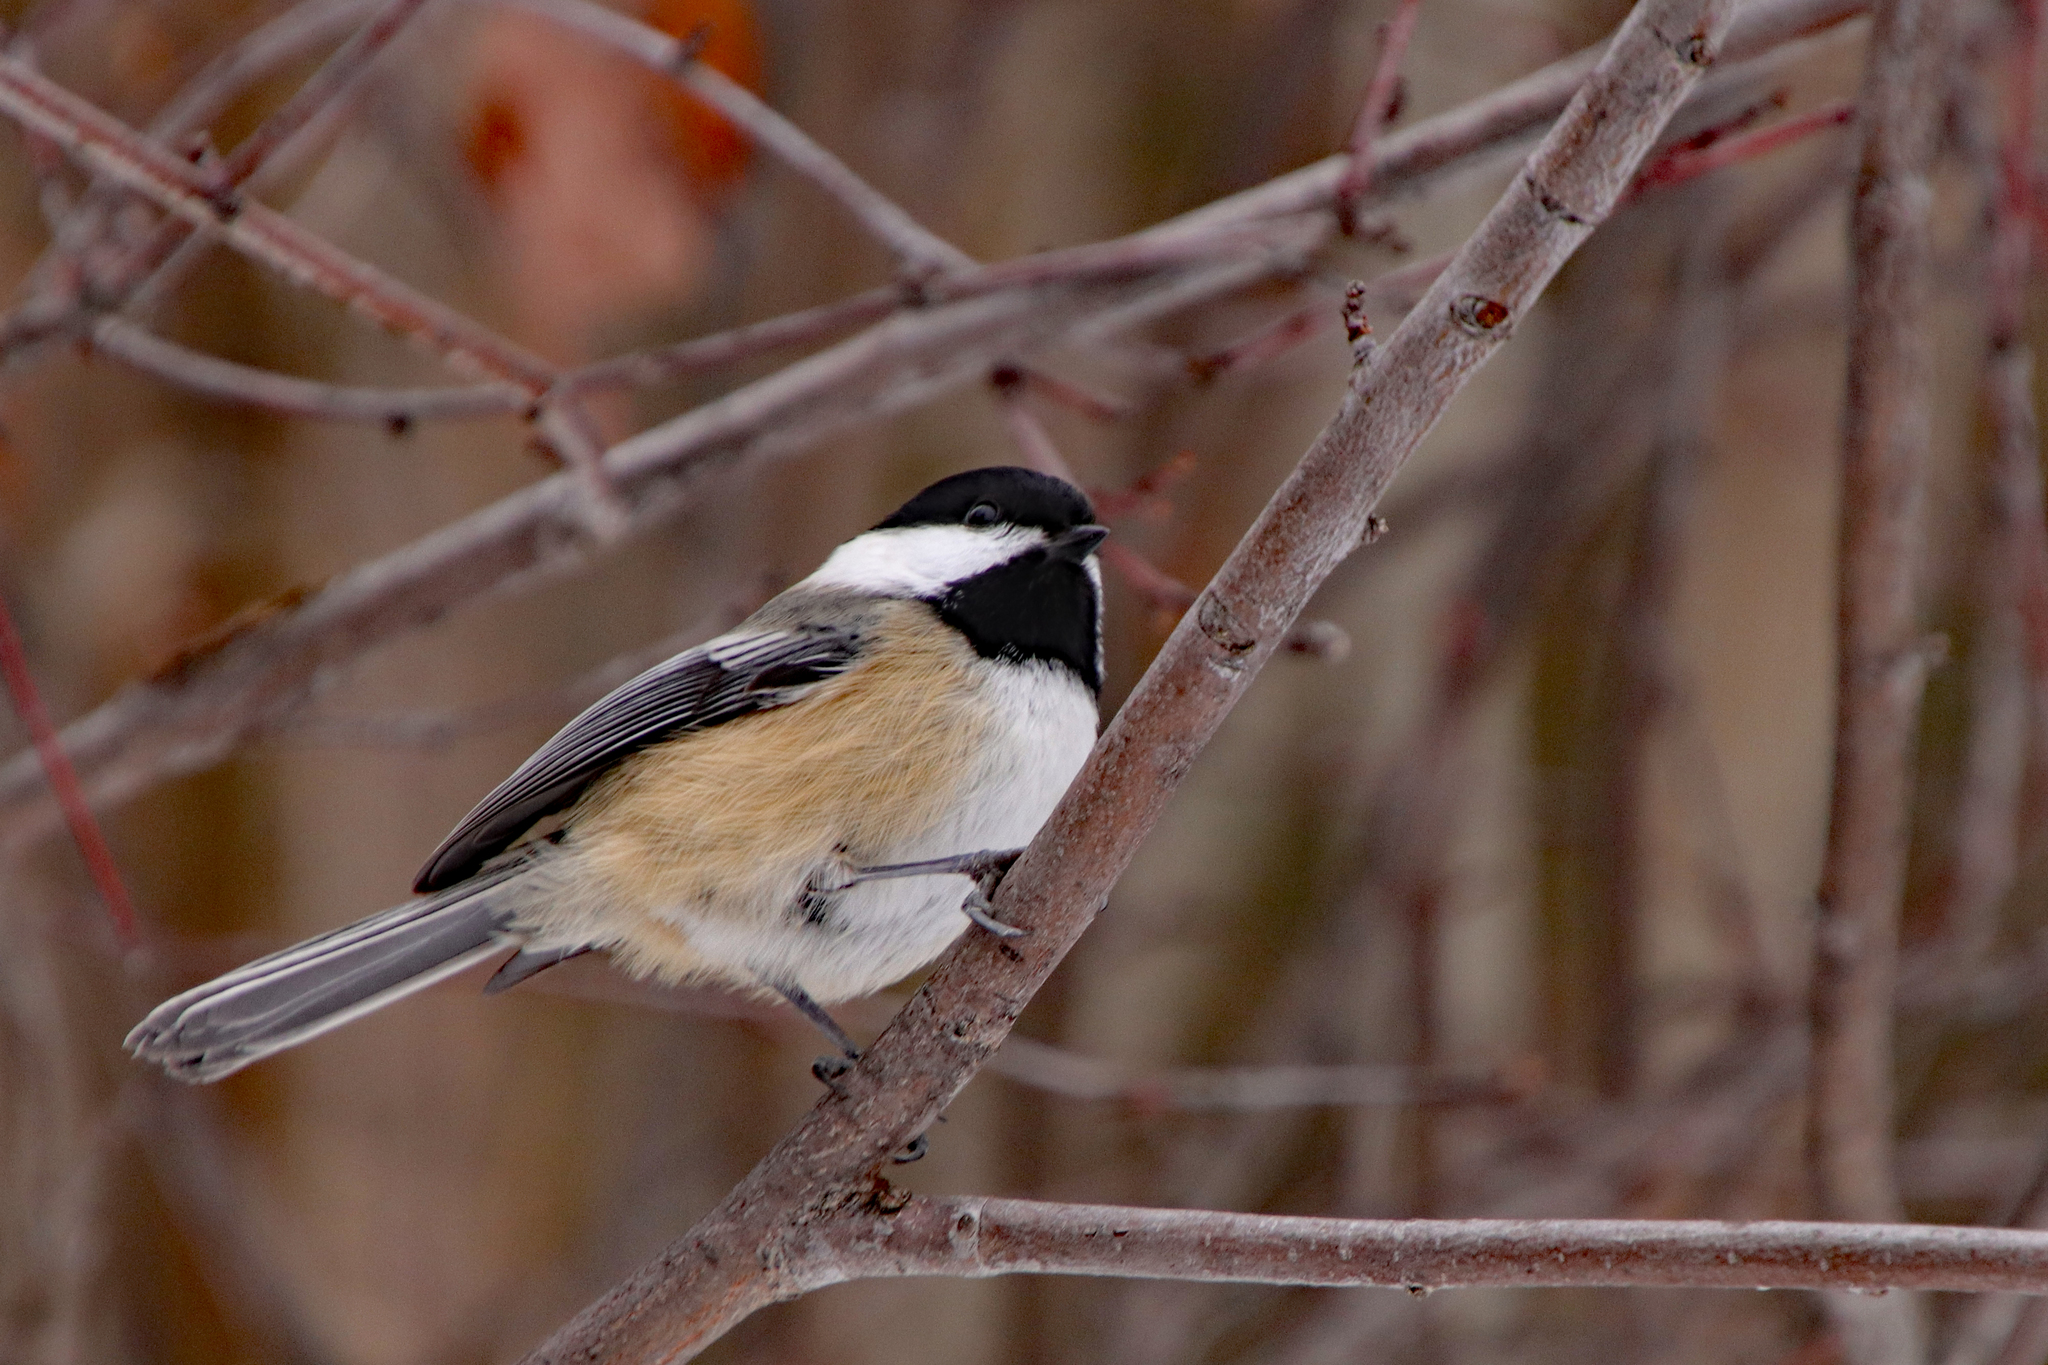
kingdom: Animalia
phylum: Chordata
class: Aves
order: Passeriformes
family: Paridae
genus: Poecile
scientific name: Poecile atricapillus
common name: Black-capped chickadee
